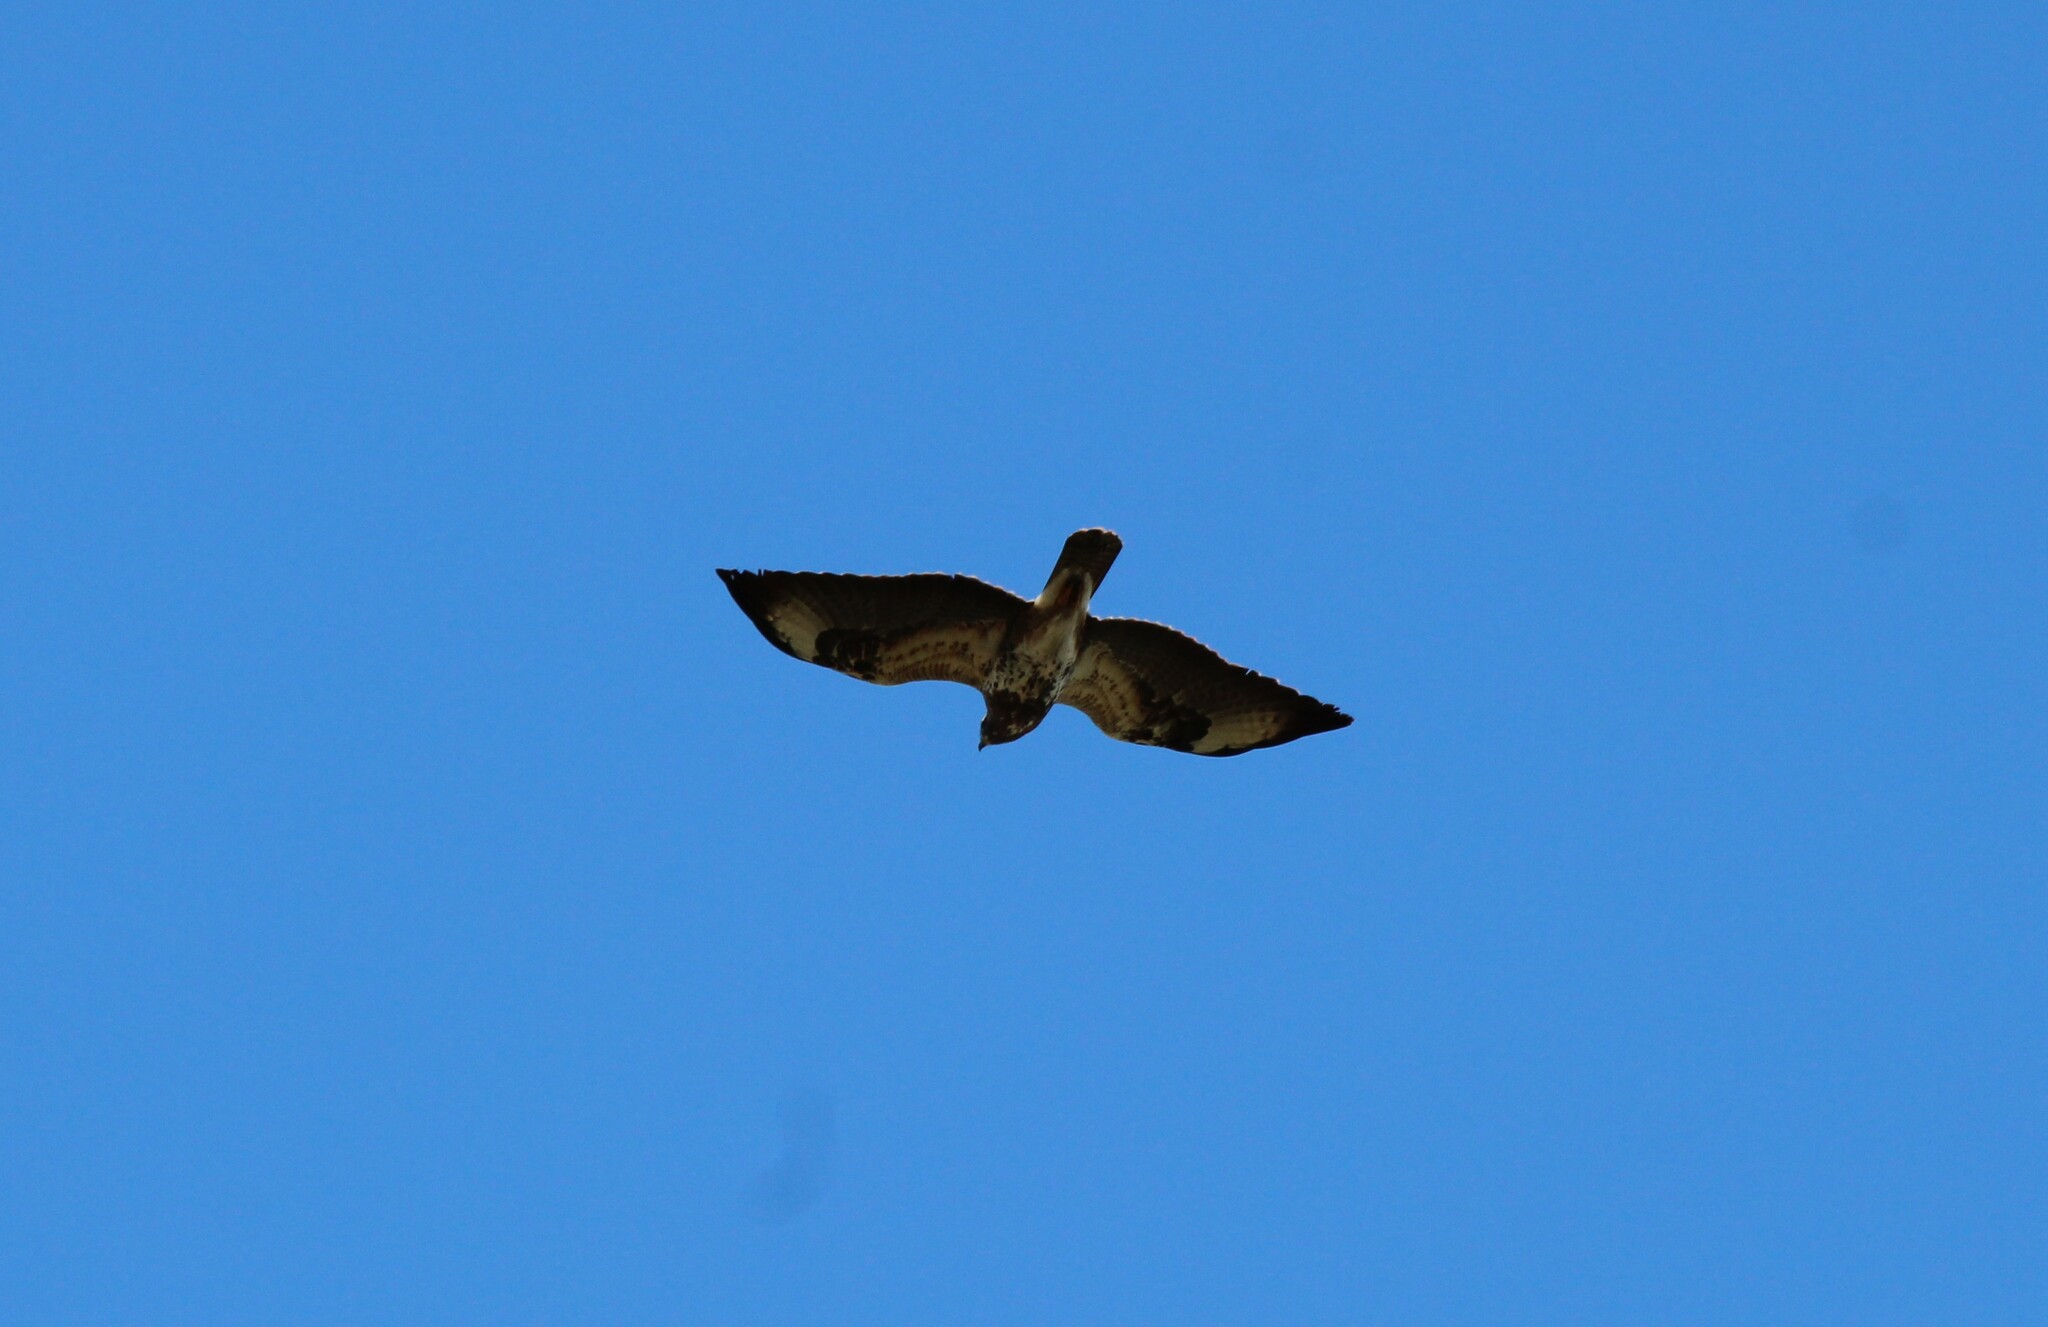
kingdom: Animalia
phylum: Chordata
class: Aves
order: Accipitriformes
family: Accipitridae
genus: Buteo
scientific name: Buteo buteo
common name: Common buzzard
